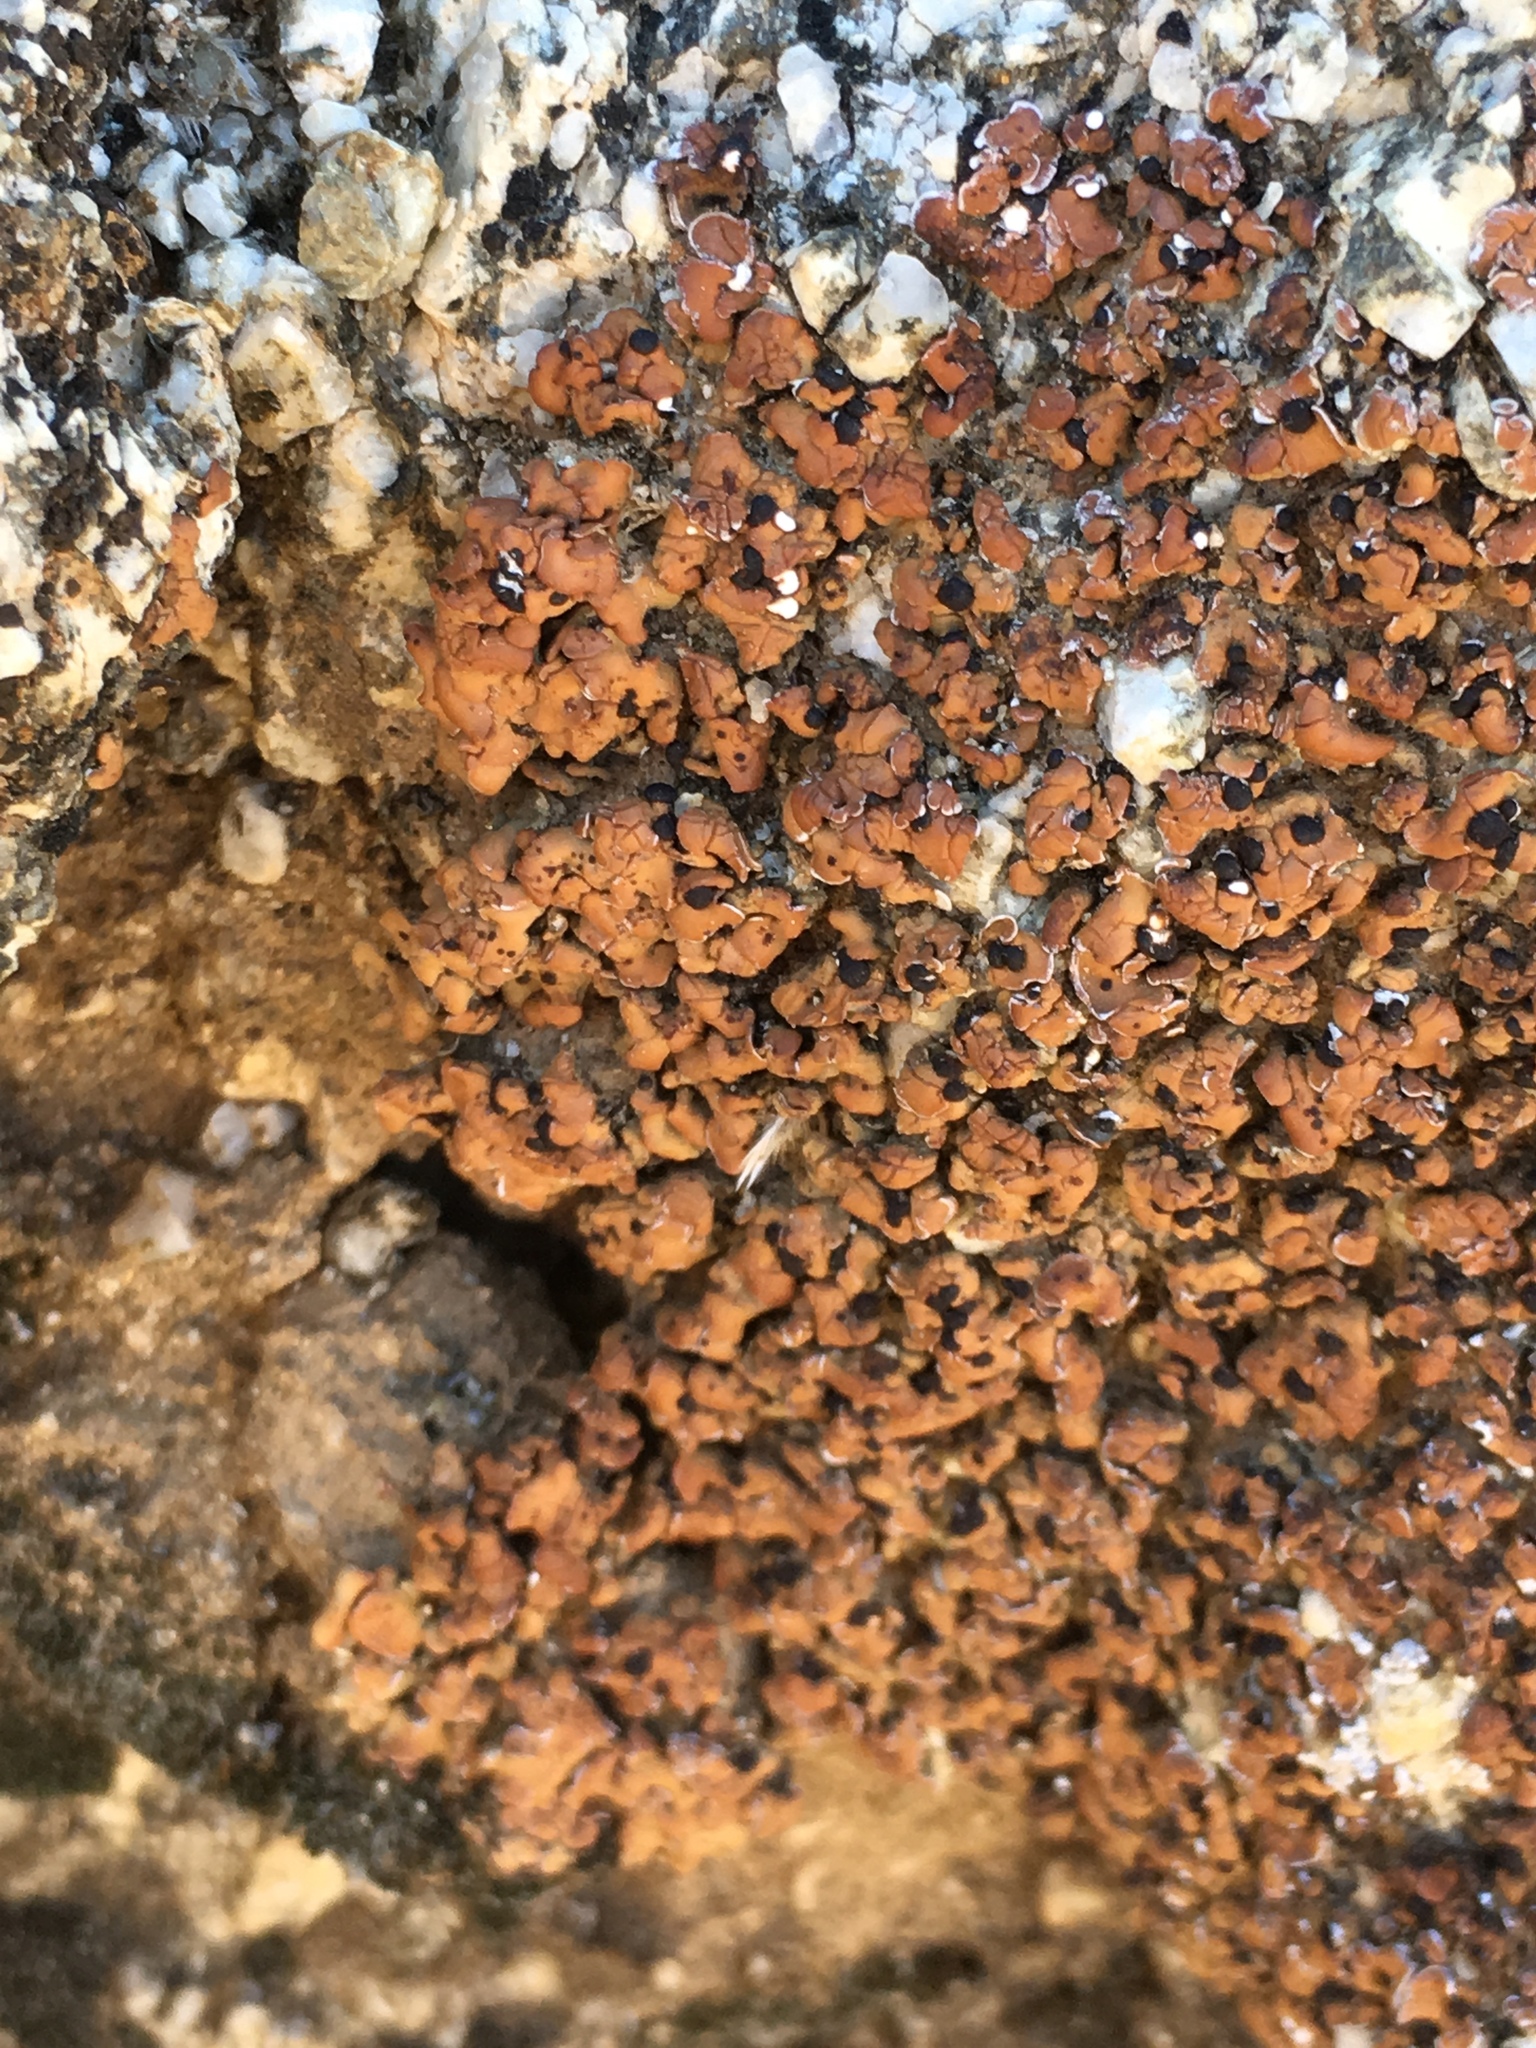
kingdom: Fungi
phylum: Ascomycota
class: Lecanoromycetes
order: Lecanorales
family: Psoraceae
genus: Psora
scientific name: Psora peninsularis
